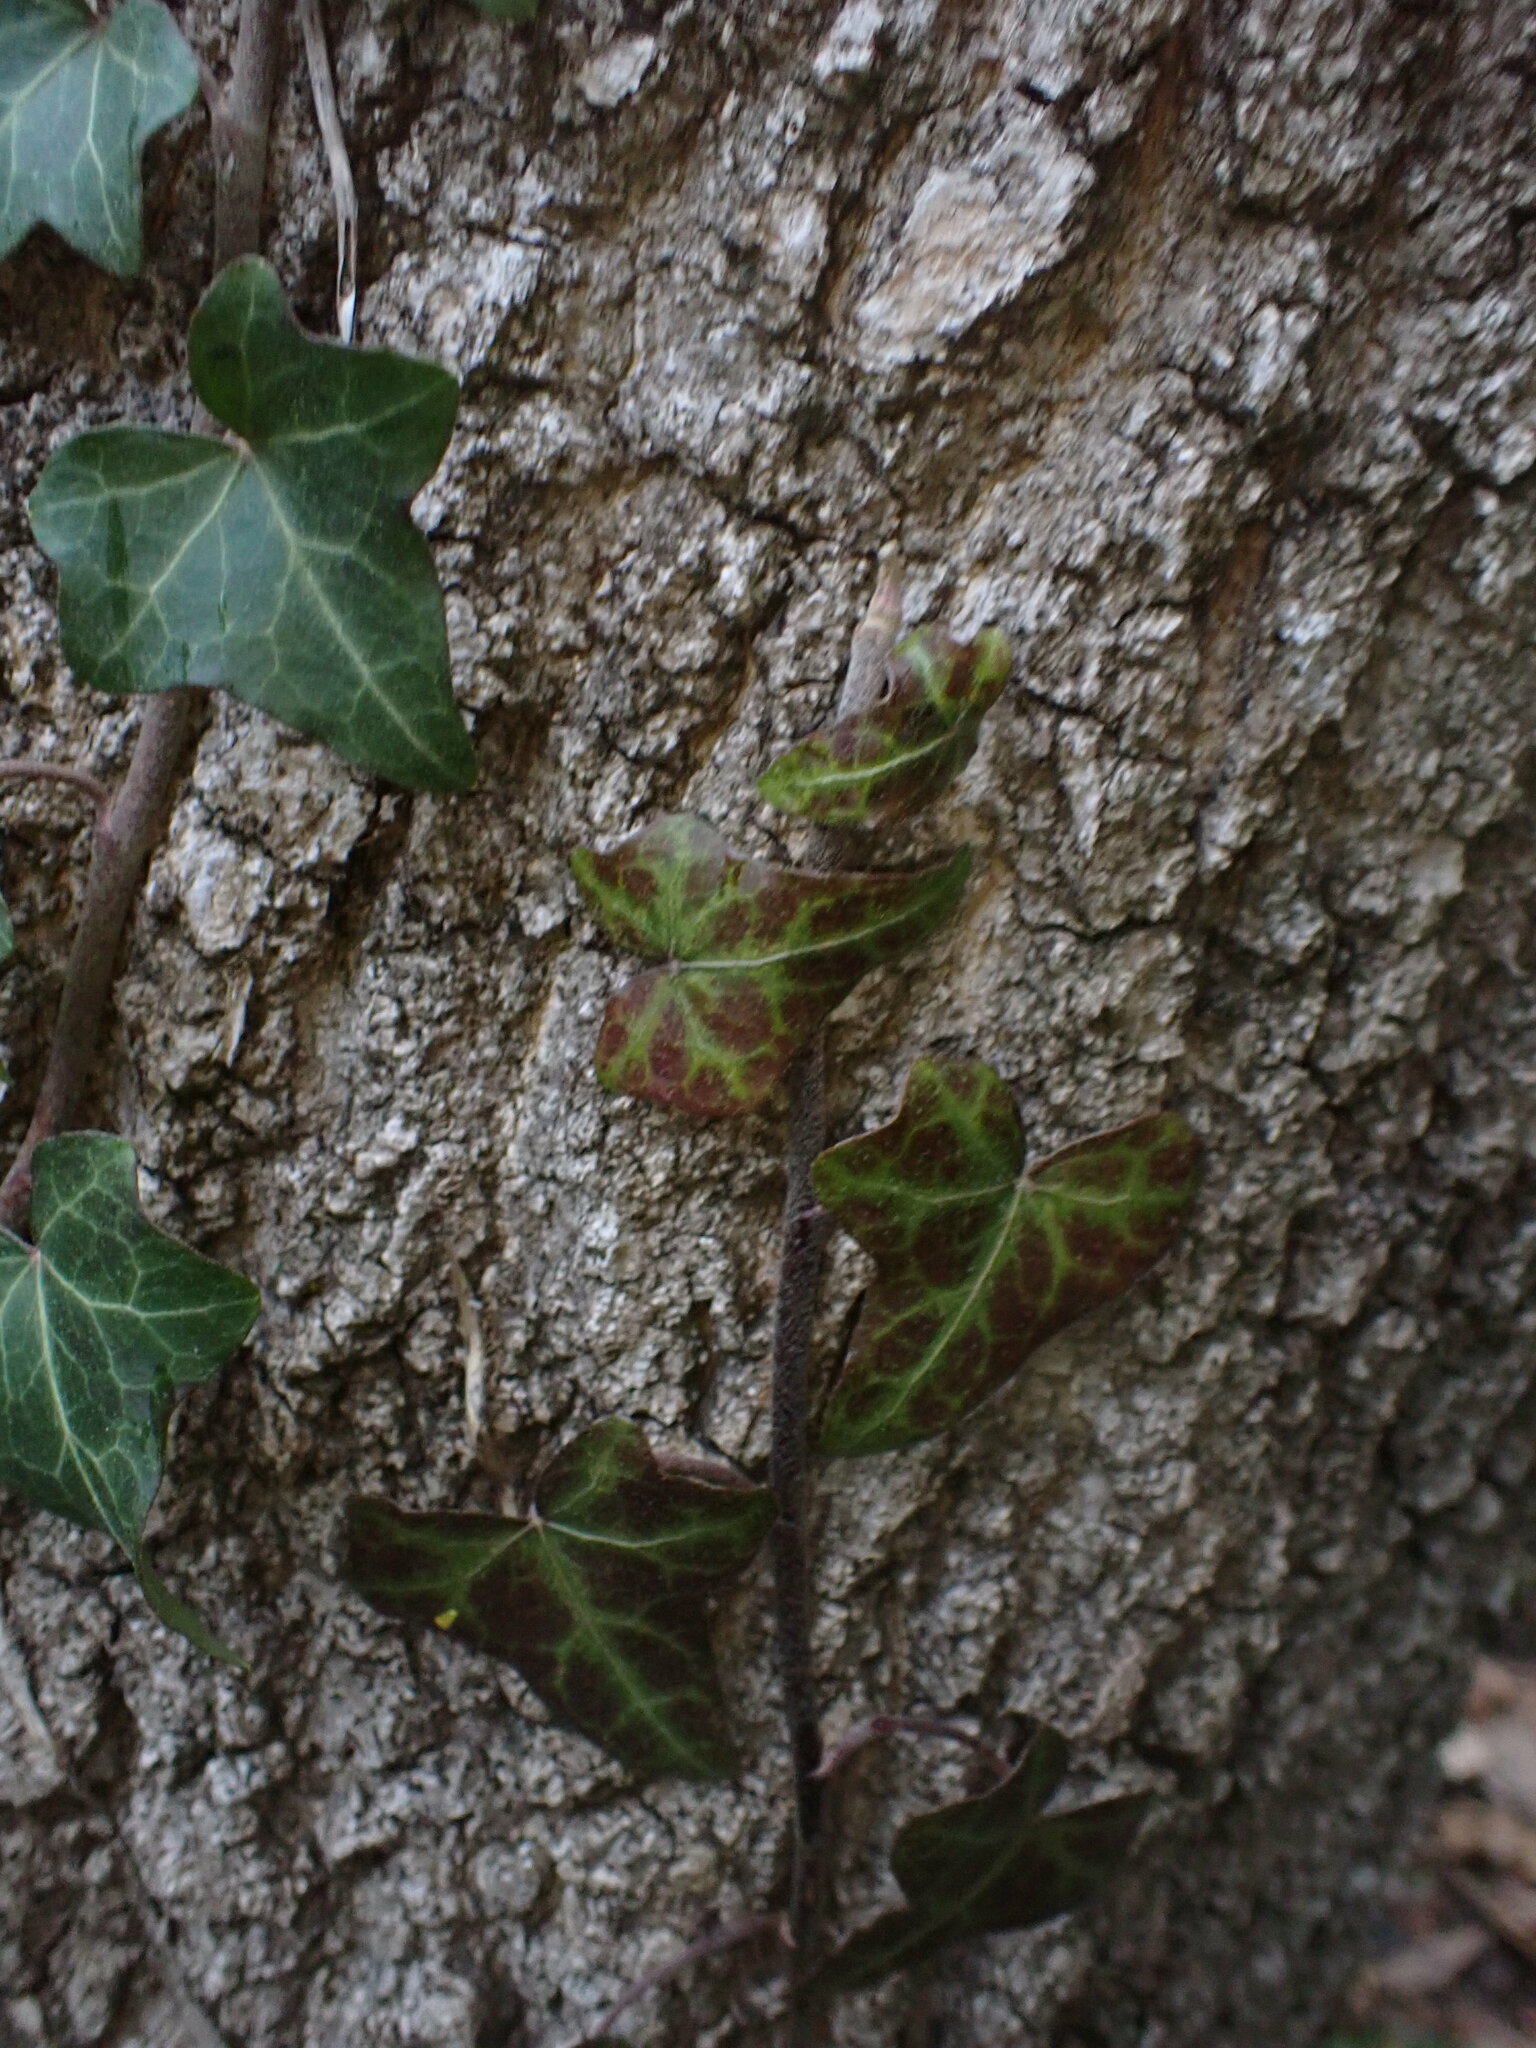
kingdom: Plantae
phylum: Tracheophyta
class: Magnoliopsida
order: Apiales
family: Araliaceae
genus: Hedera
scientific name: Hedera helix
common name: Ivy
